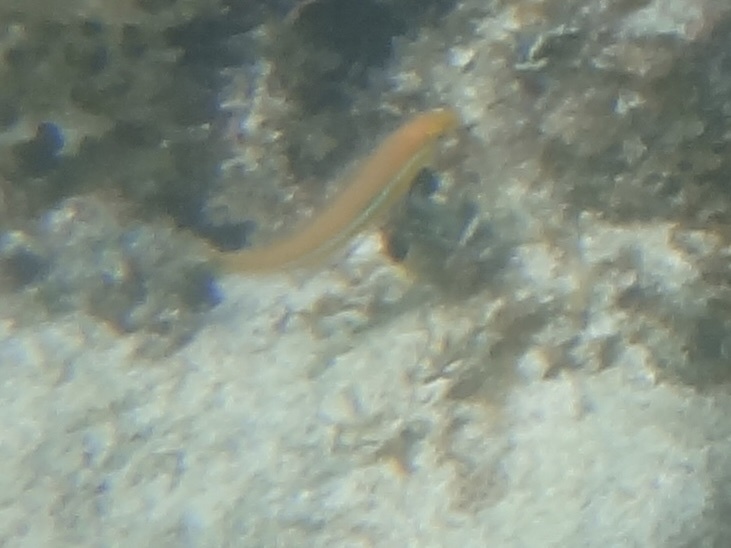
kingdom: Animalia
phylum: Chordata
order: Perciformes
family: Labridae
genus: Halichoeres
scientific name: Halichoeres garnoti
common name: Yellowhead wrasse
